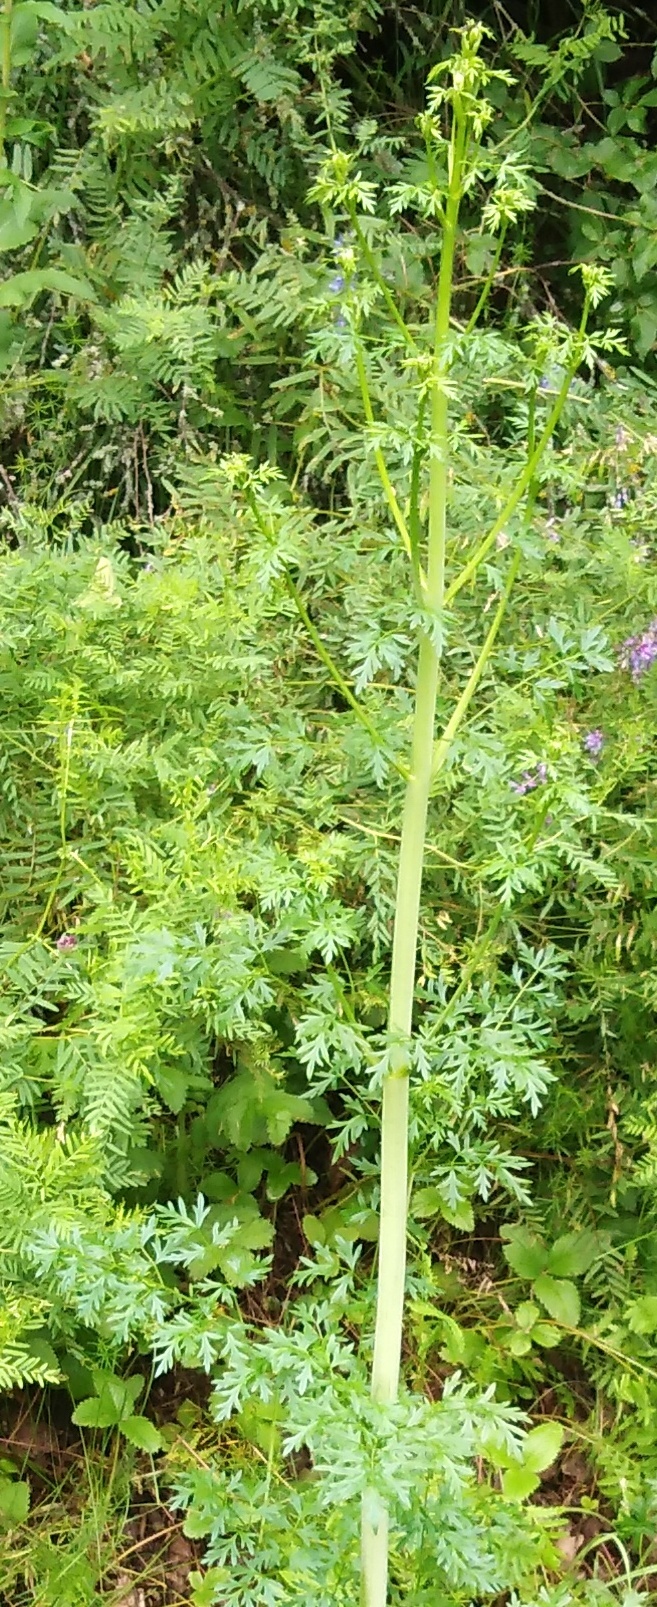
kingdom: Plantae
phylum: Tracheophyta
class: Magnoliopsida
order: Apiales
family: Apiaceae
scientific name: Apiaceae
